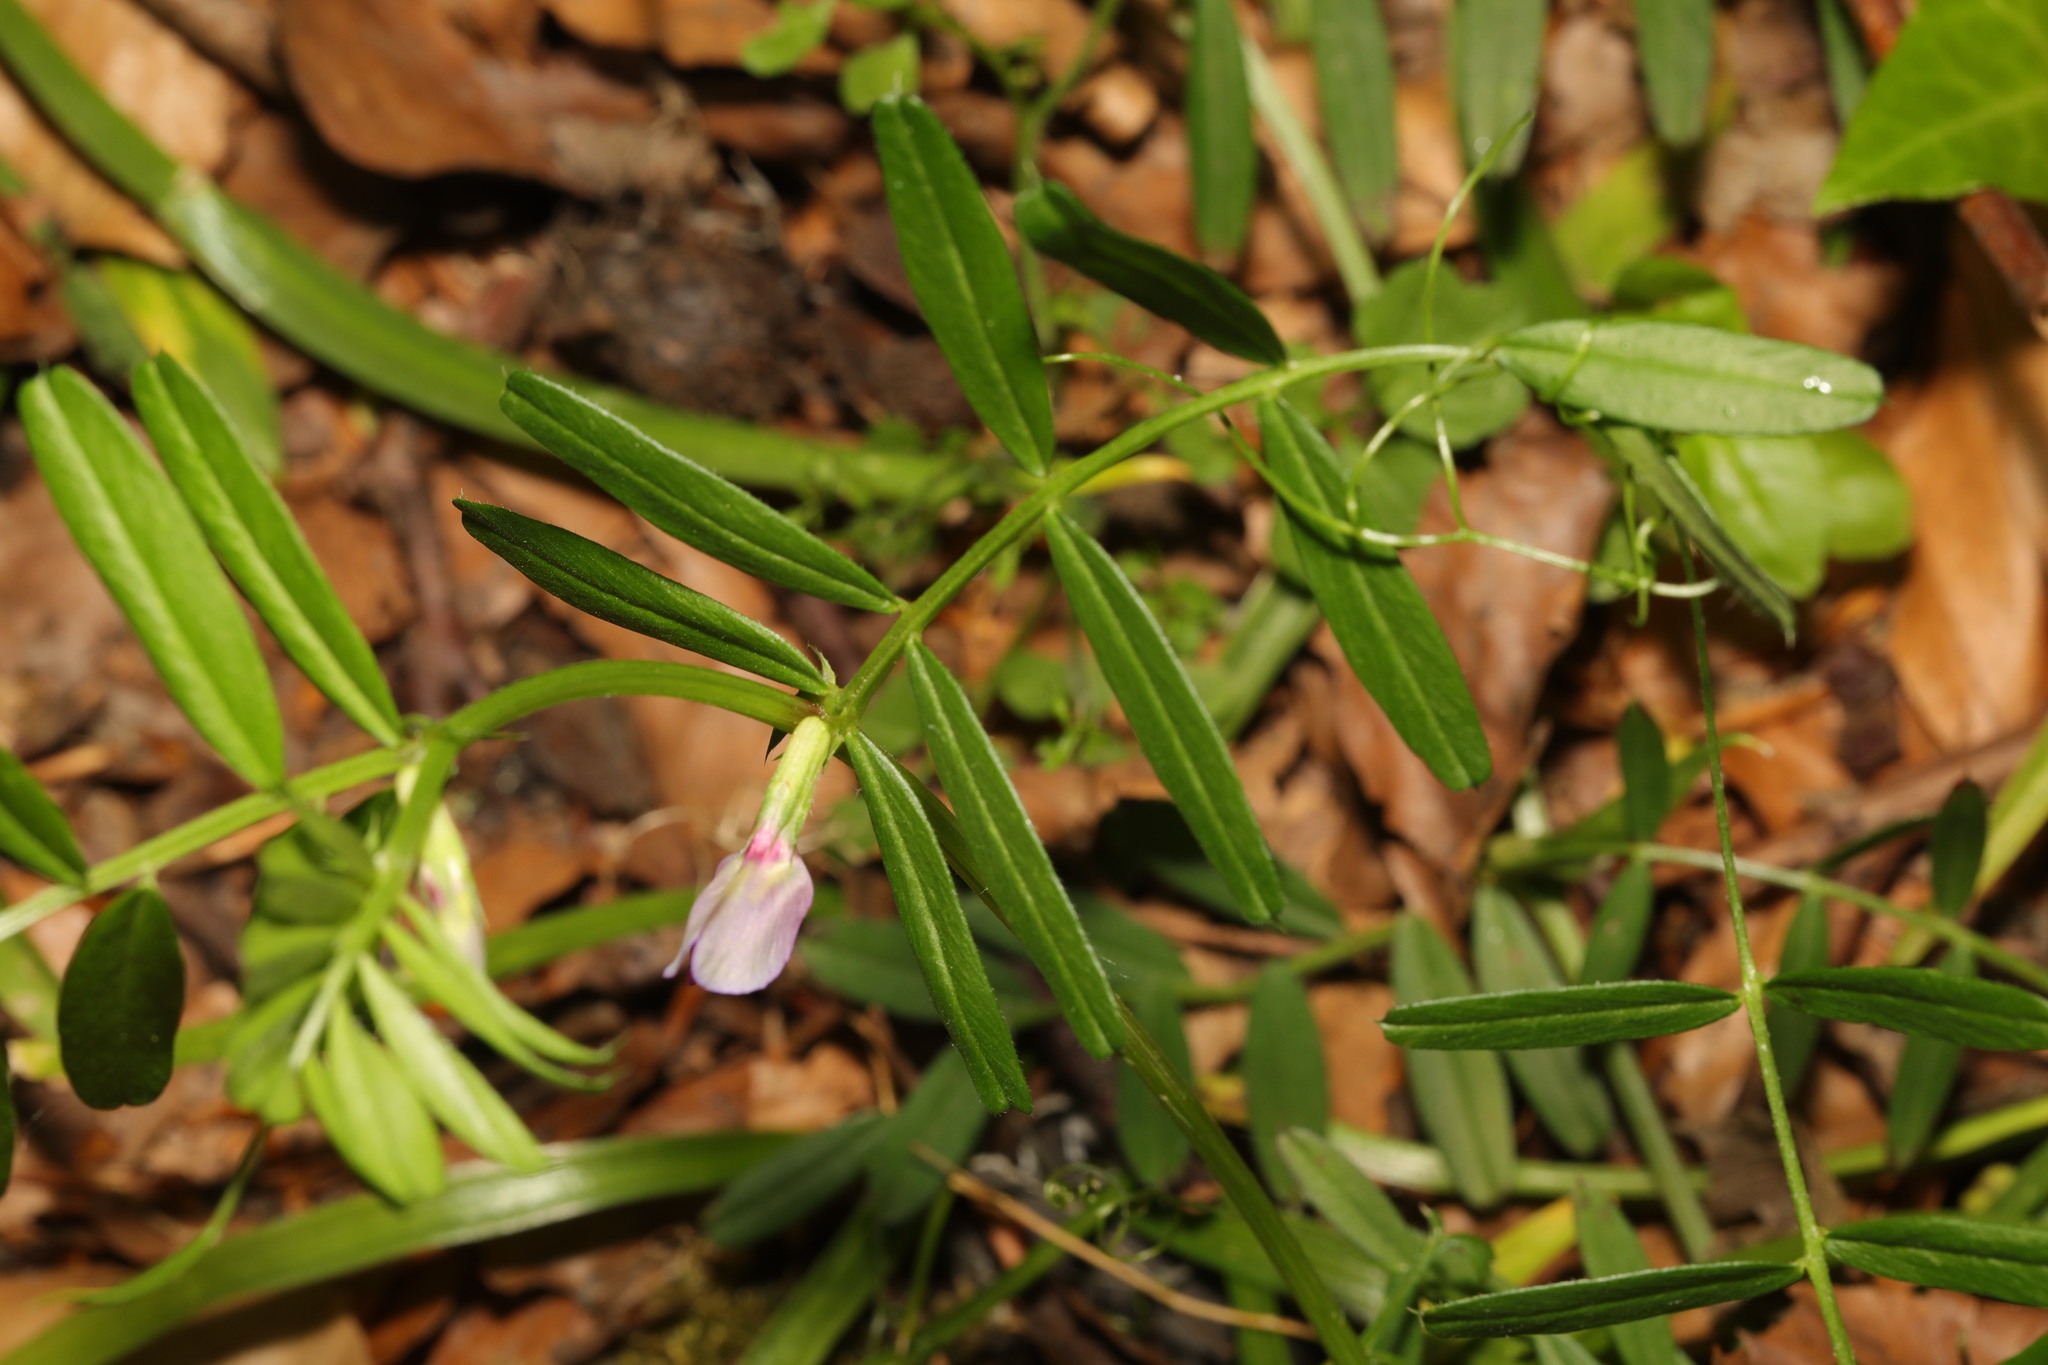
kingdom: Plantae
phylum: Tracheophyta
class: Magnoliopsida
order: Fabales
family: Fabaceae
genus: Vicia
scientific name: Vicia sativa
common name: Garden vetch
